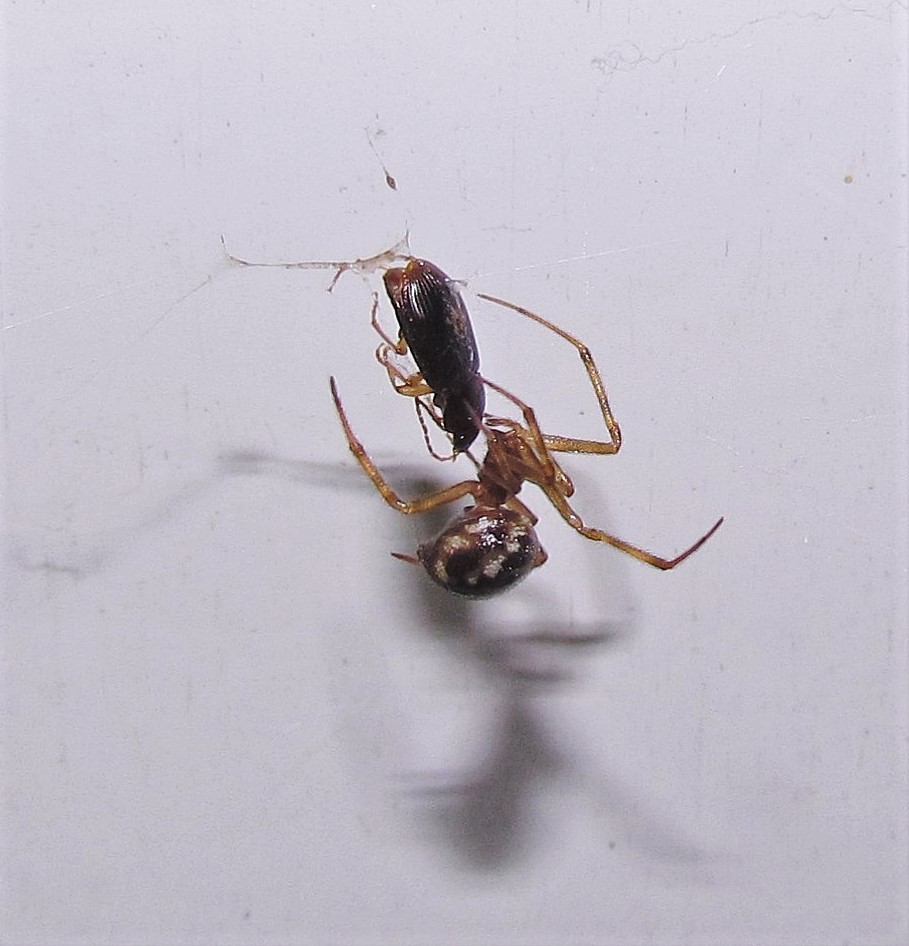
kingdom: Animalia
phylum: Arthropoda
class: Arachnida
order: Araneae
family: Theridiidae
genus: Steatoda
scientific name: Steatoda triangulosa
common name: Triangulate bud spider
